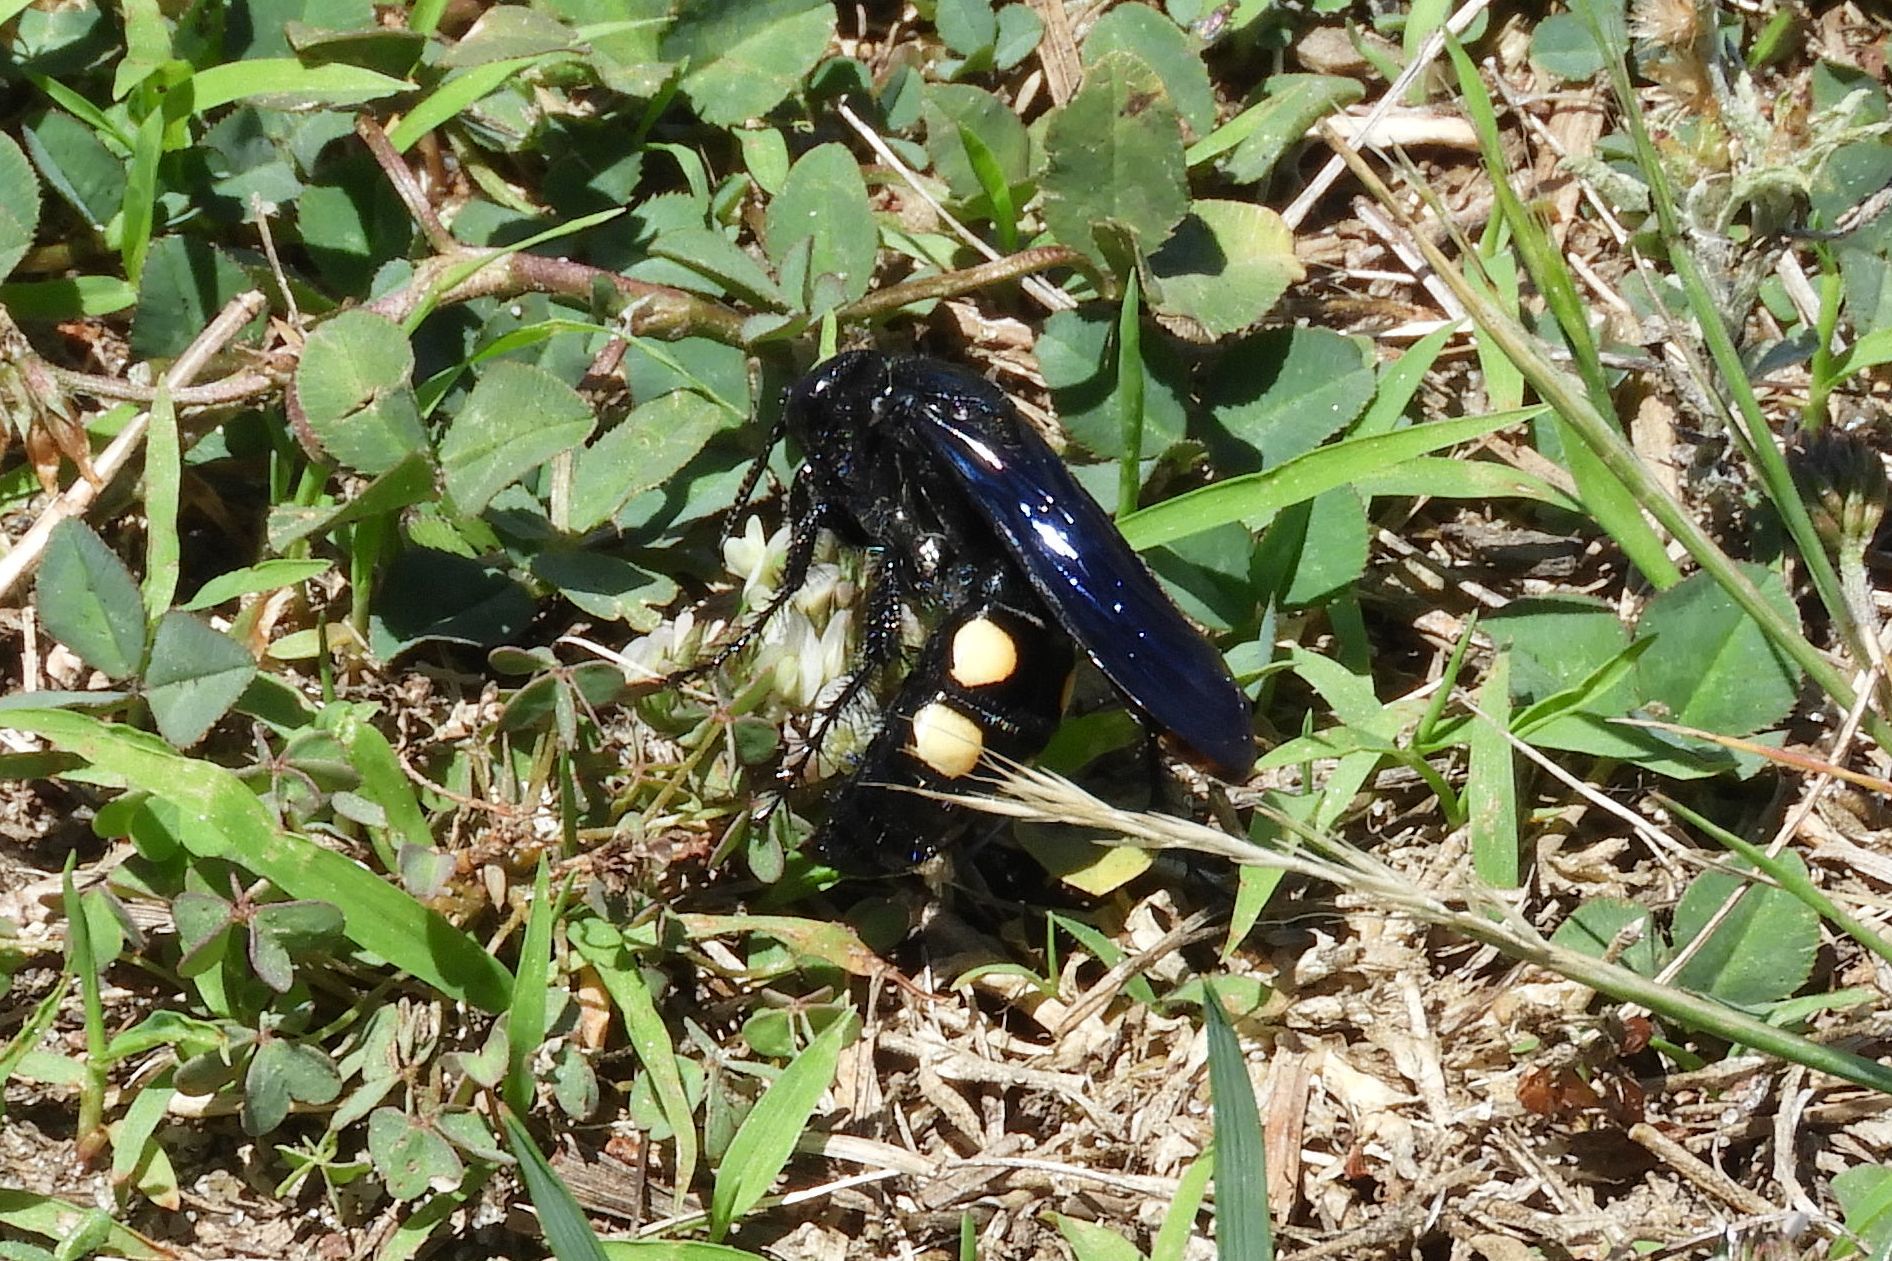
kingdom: Animalia
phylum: Arthropoda
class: Insecta
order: Hymenoptera
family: Scoliidae
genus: Pygodasis
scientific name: Pygodasis
